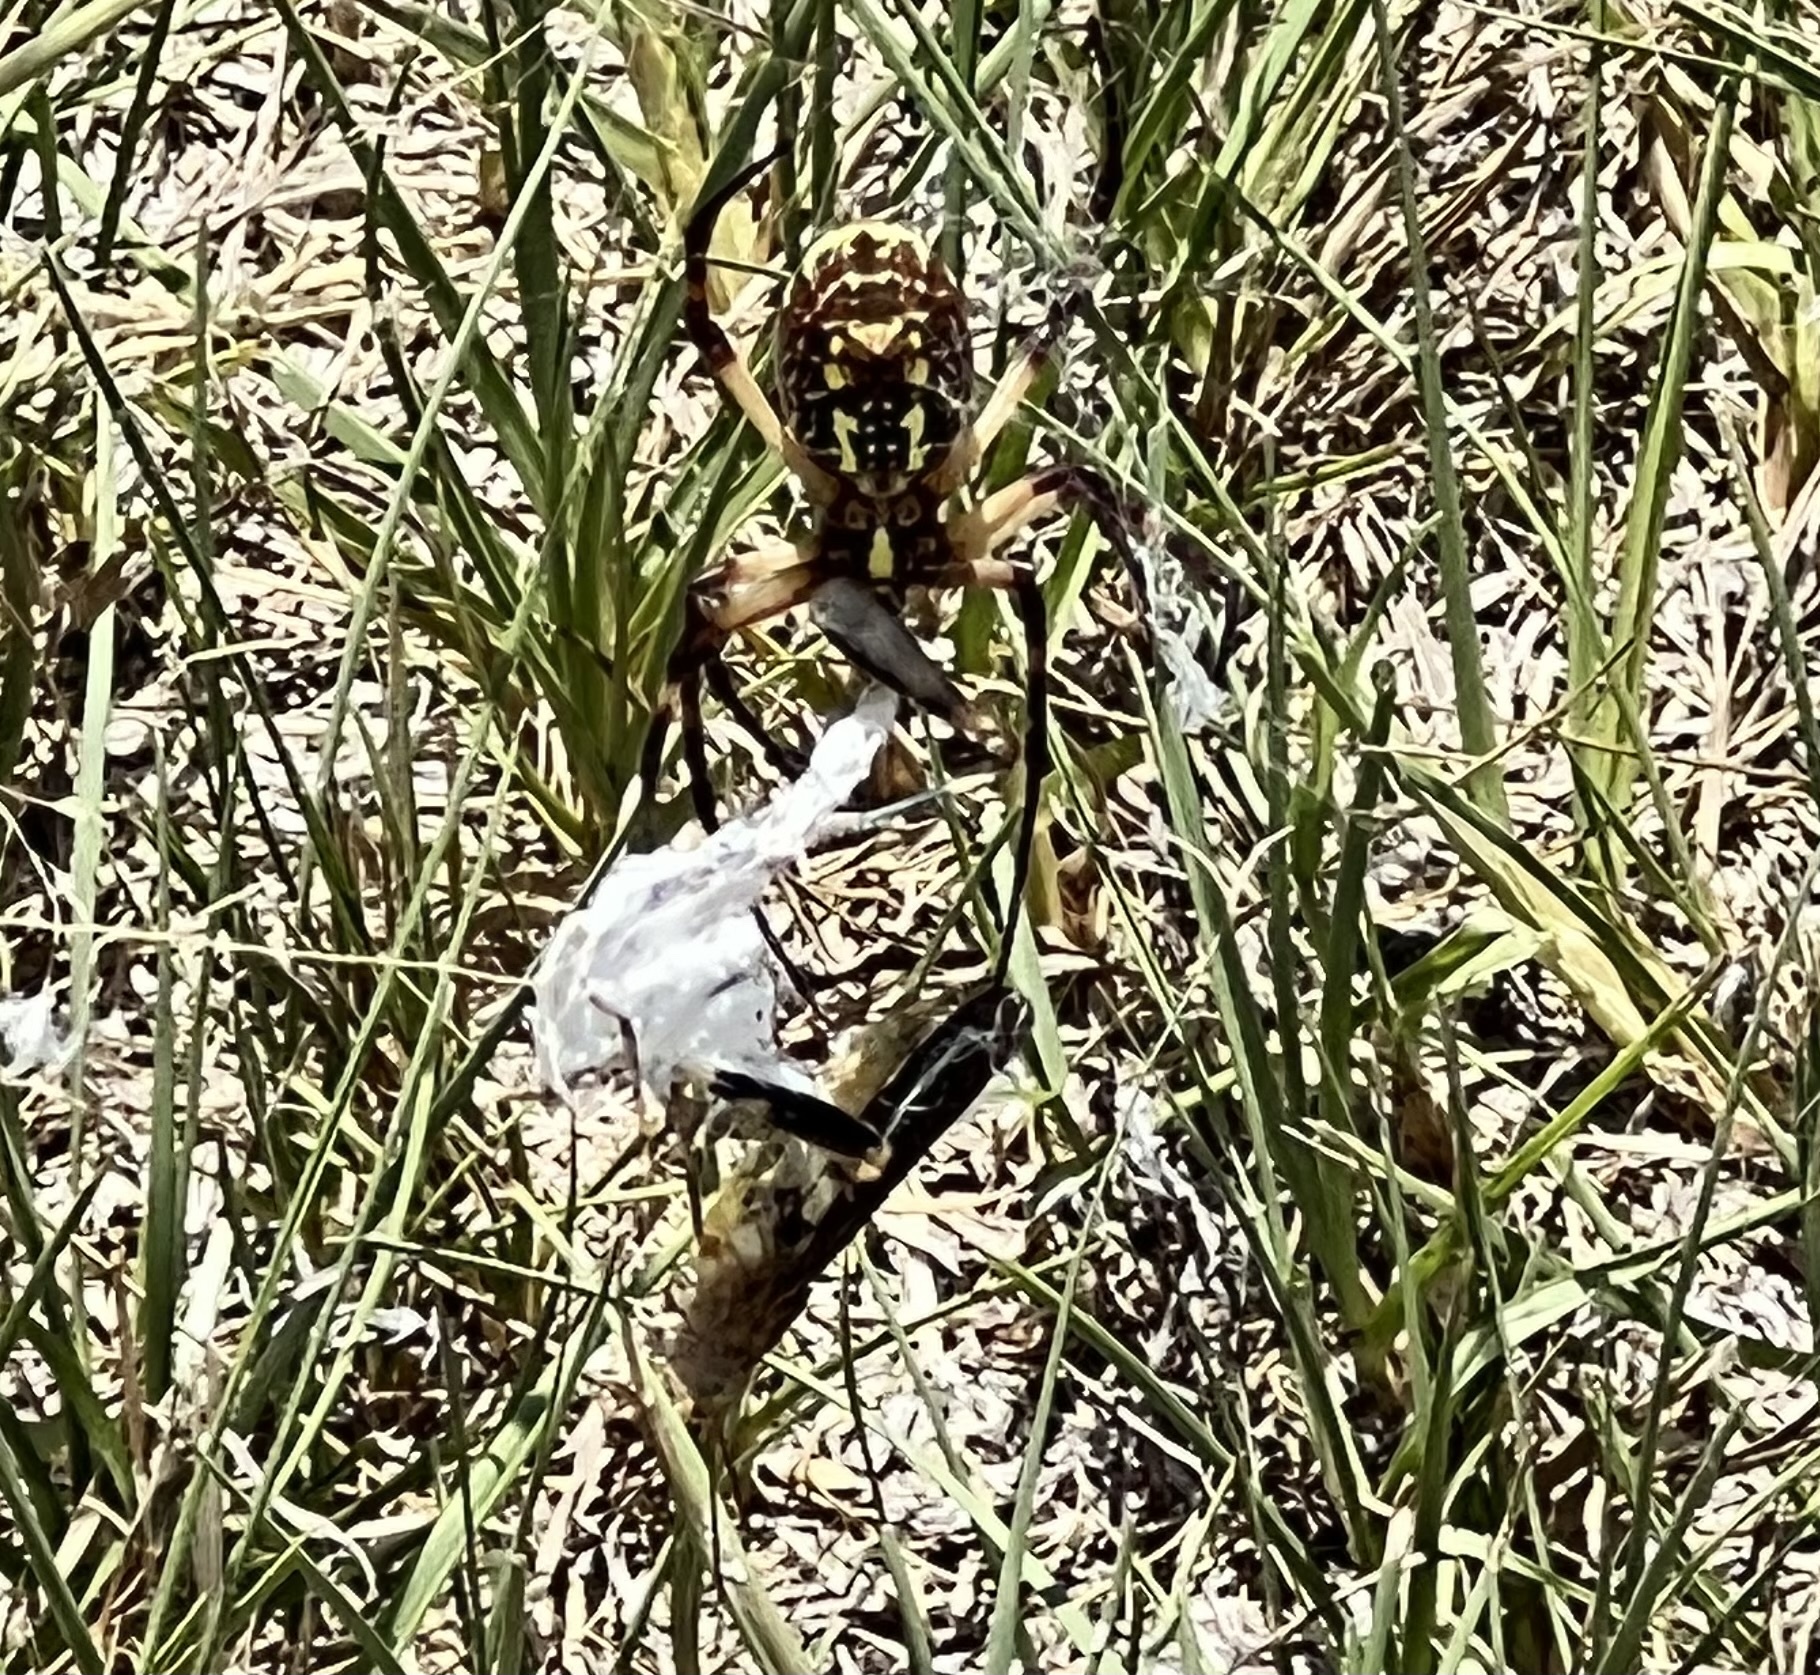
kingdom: Animalia
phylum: Arthropoda
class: Arachnida
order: Araneae
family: Araneidae
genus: Argiope
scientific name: Argiope aurantia
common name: Orb weavers
